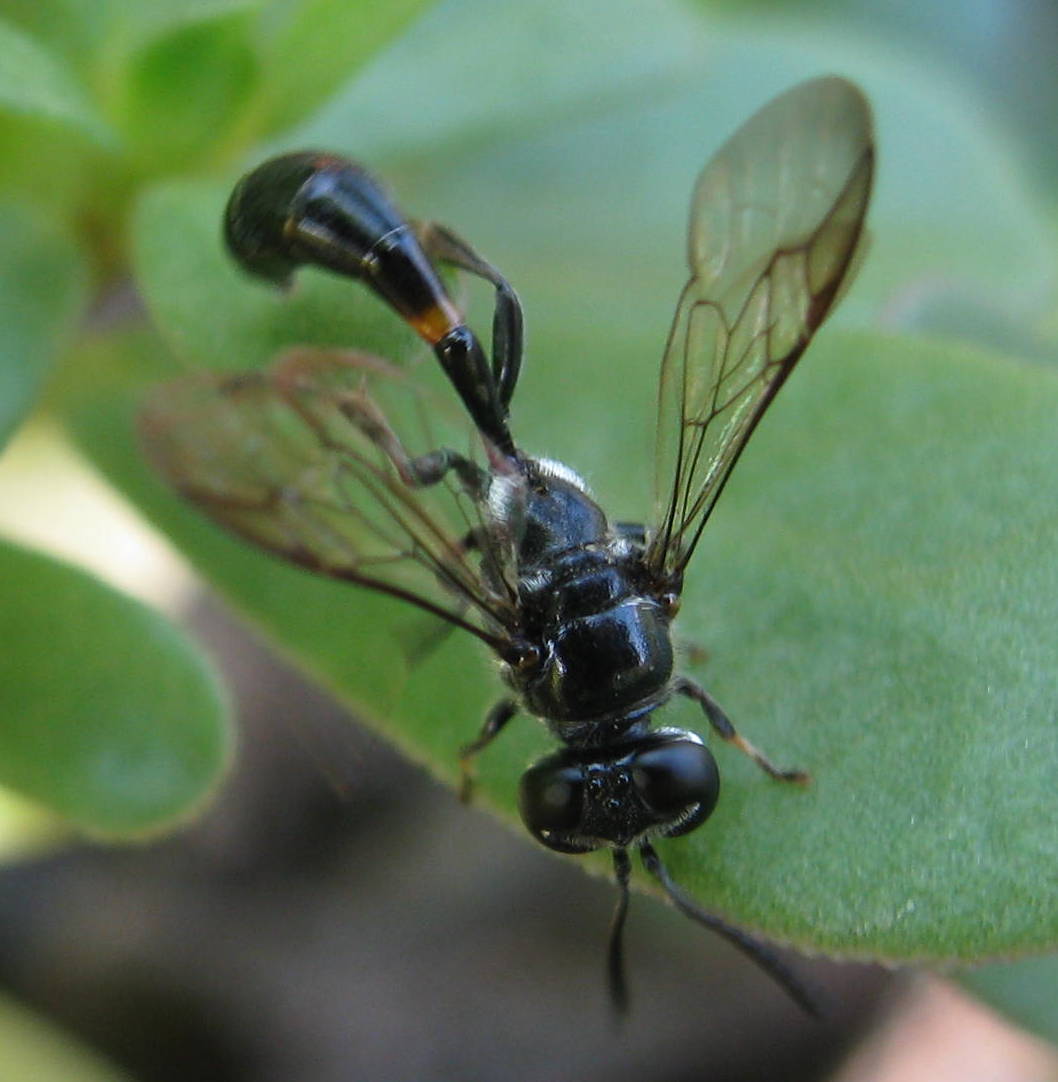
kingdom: Animalia
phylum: Arthropoda
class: Insecta
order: Hymenoptera
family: Crabronidae
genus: Trypoxylon
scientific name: Trypoxylon collinum
